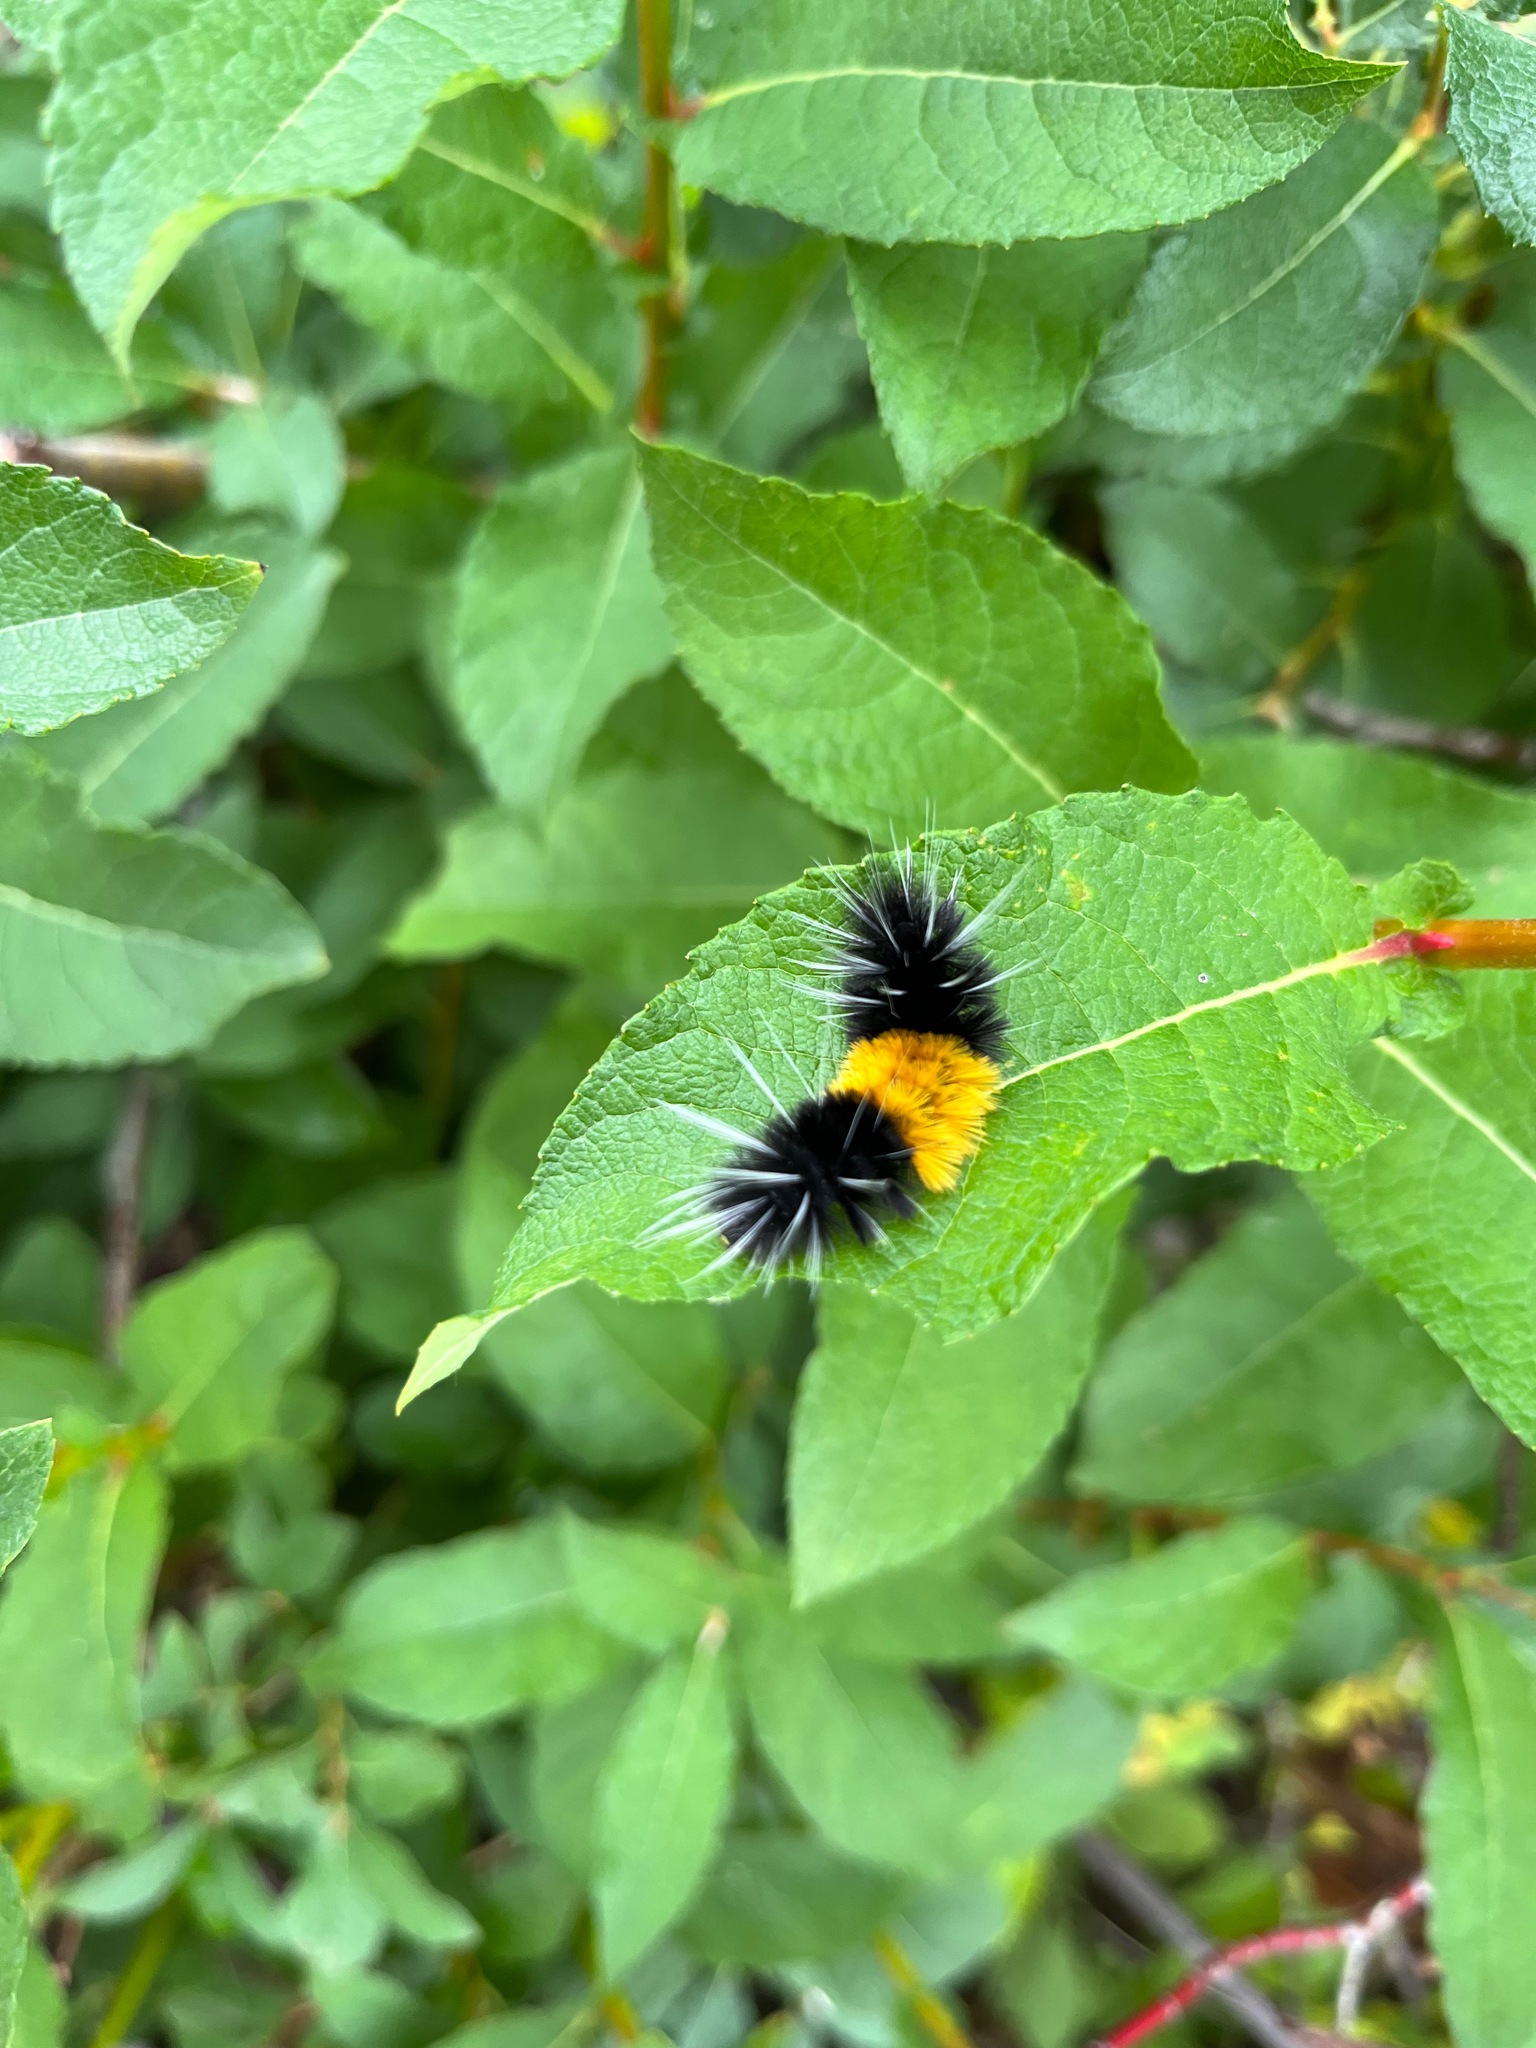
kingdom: Animalia
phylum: Arthropoda
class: Insecta
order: Lepidoptera
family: Erebidae
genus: Lophocampa
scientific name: Lophocampa maculata
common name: Spotted tussock moth
